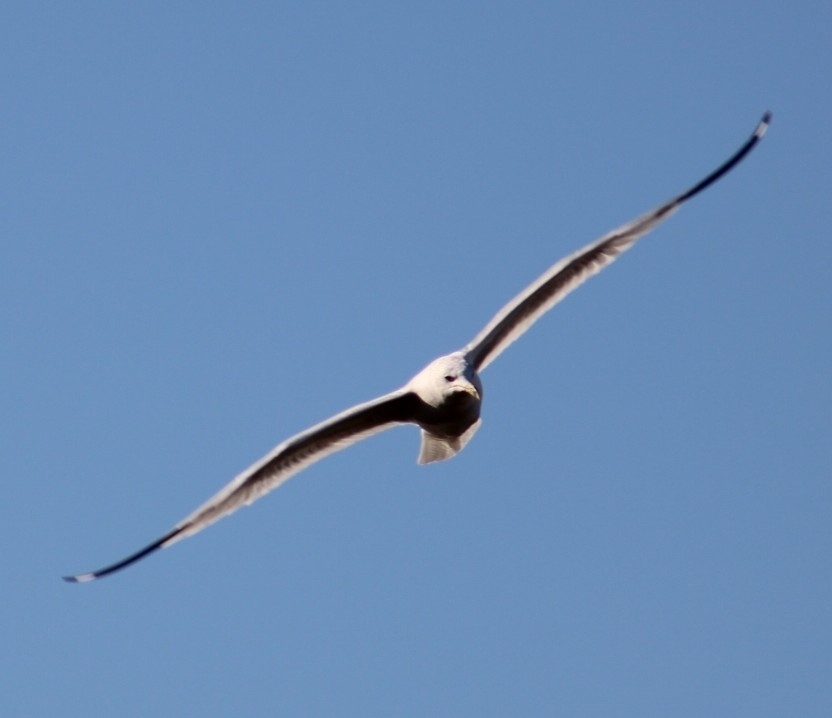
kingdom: Animalia
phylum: Chordata
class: Aves
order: Charadriiformes
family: Laridae
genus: Larus
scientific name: Larus delawarensis
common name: Ring-billed gull
